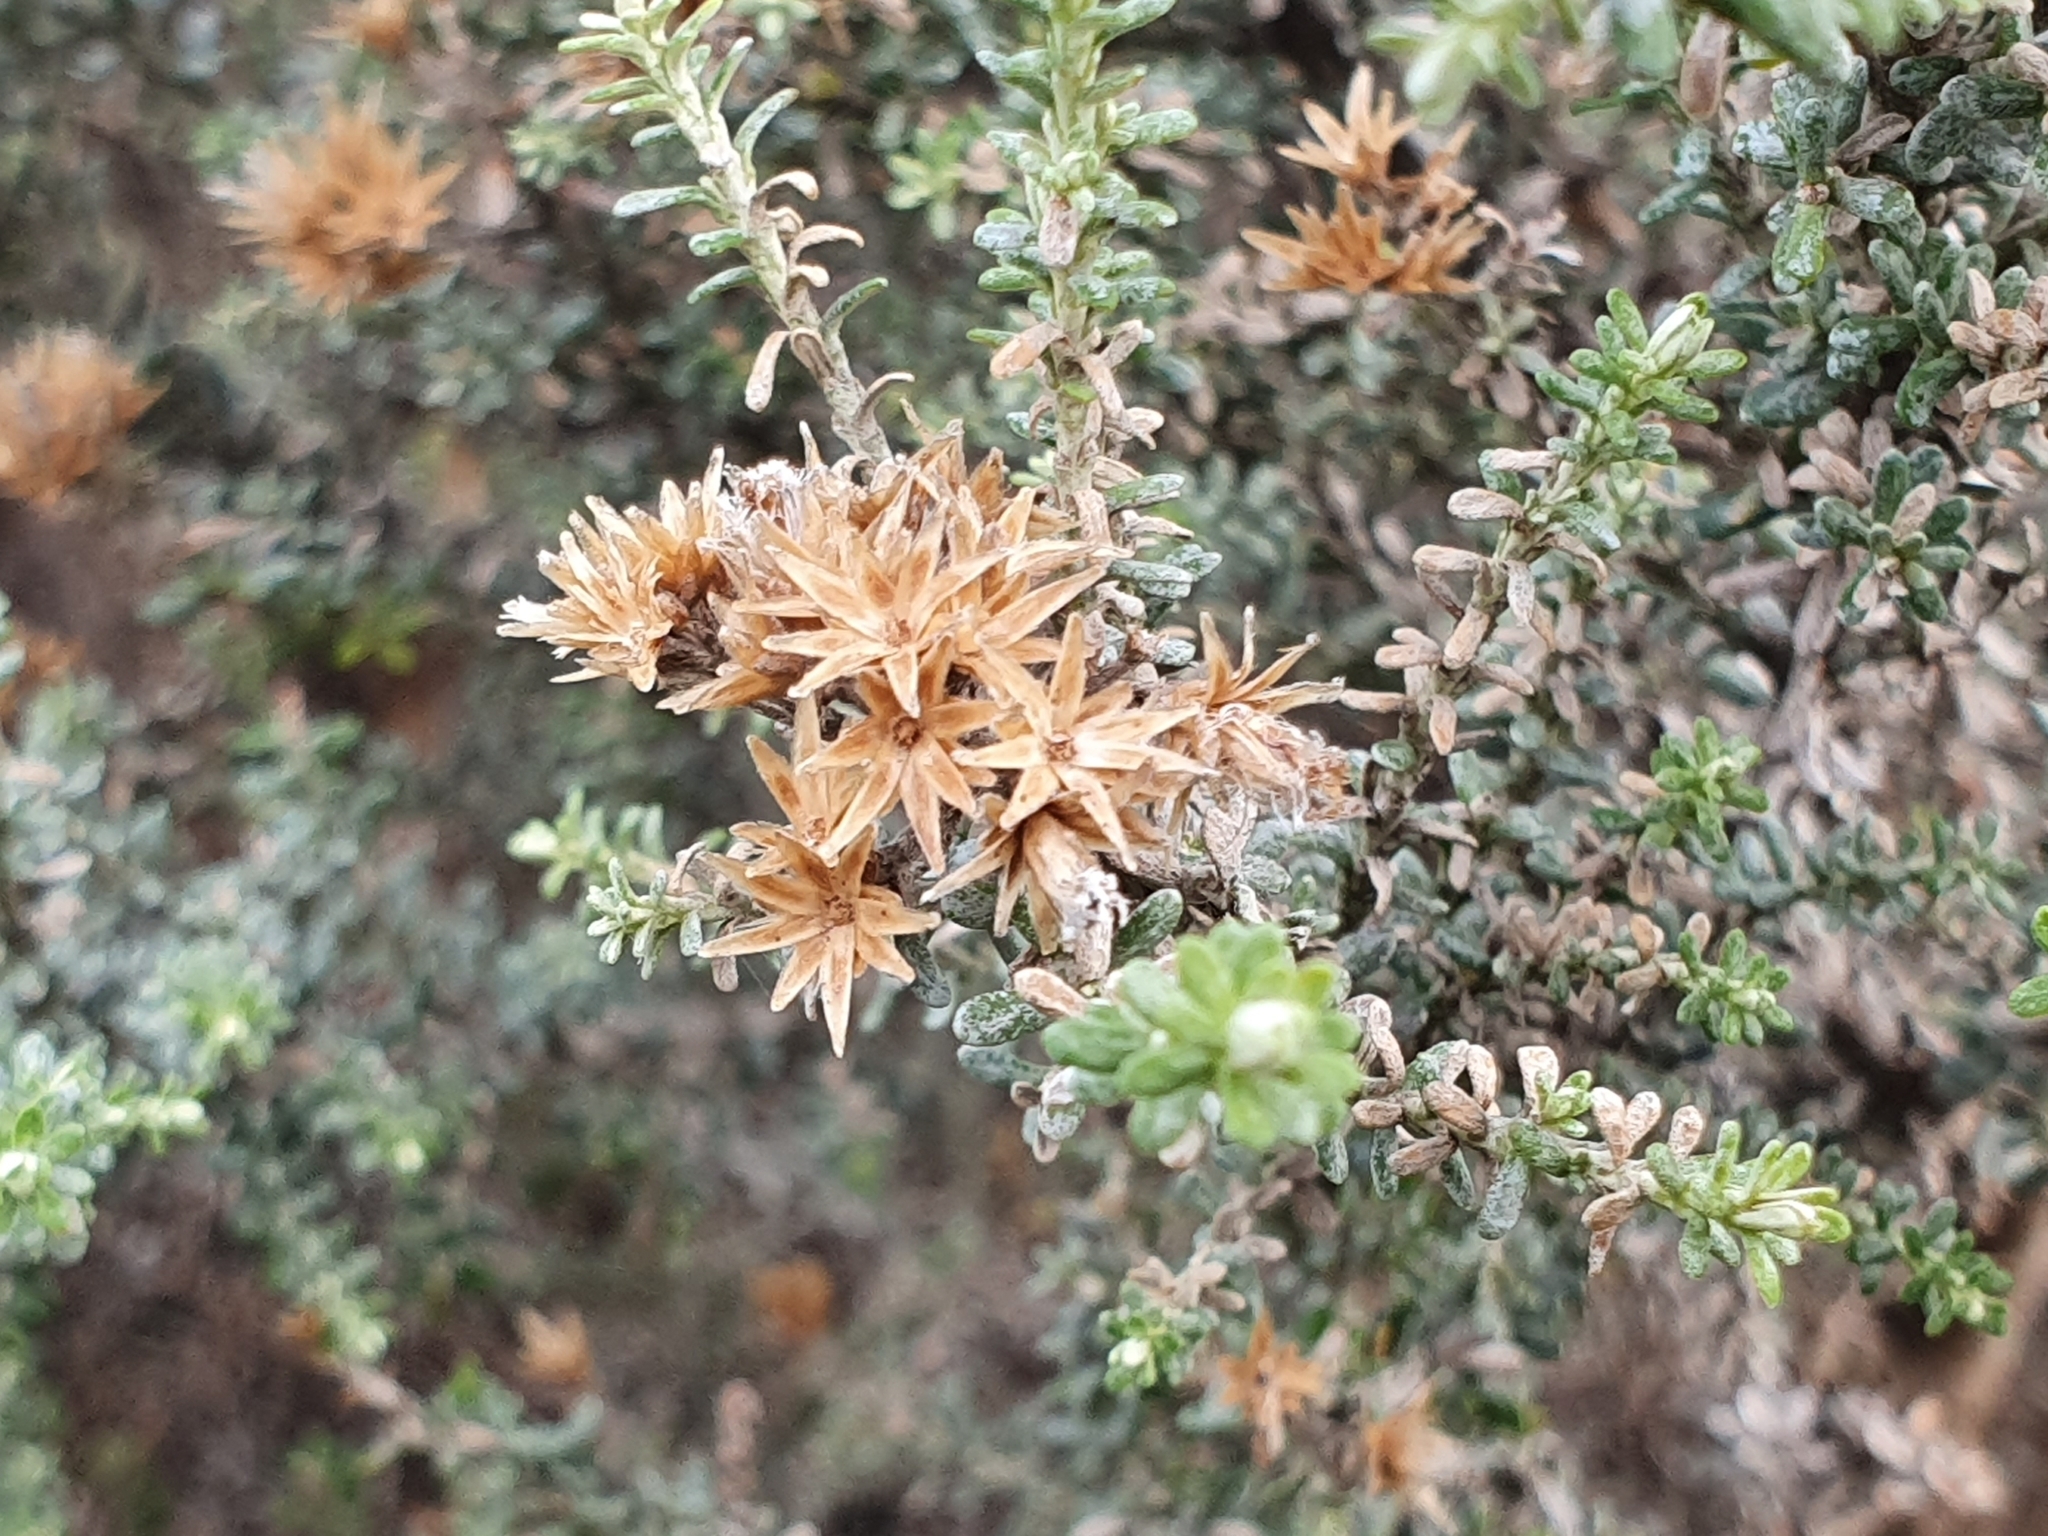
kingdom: Plantae
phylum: Tracheophyta
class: Magnoliopsida
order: Asterales
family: Asteraceae
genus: Ozothamnus
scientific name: Ozothamnus leptophyllus
